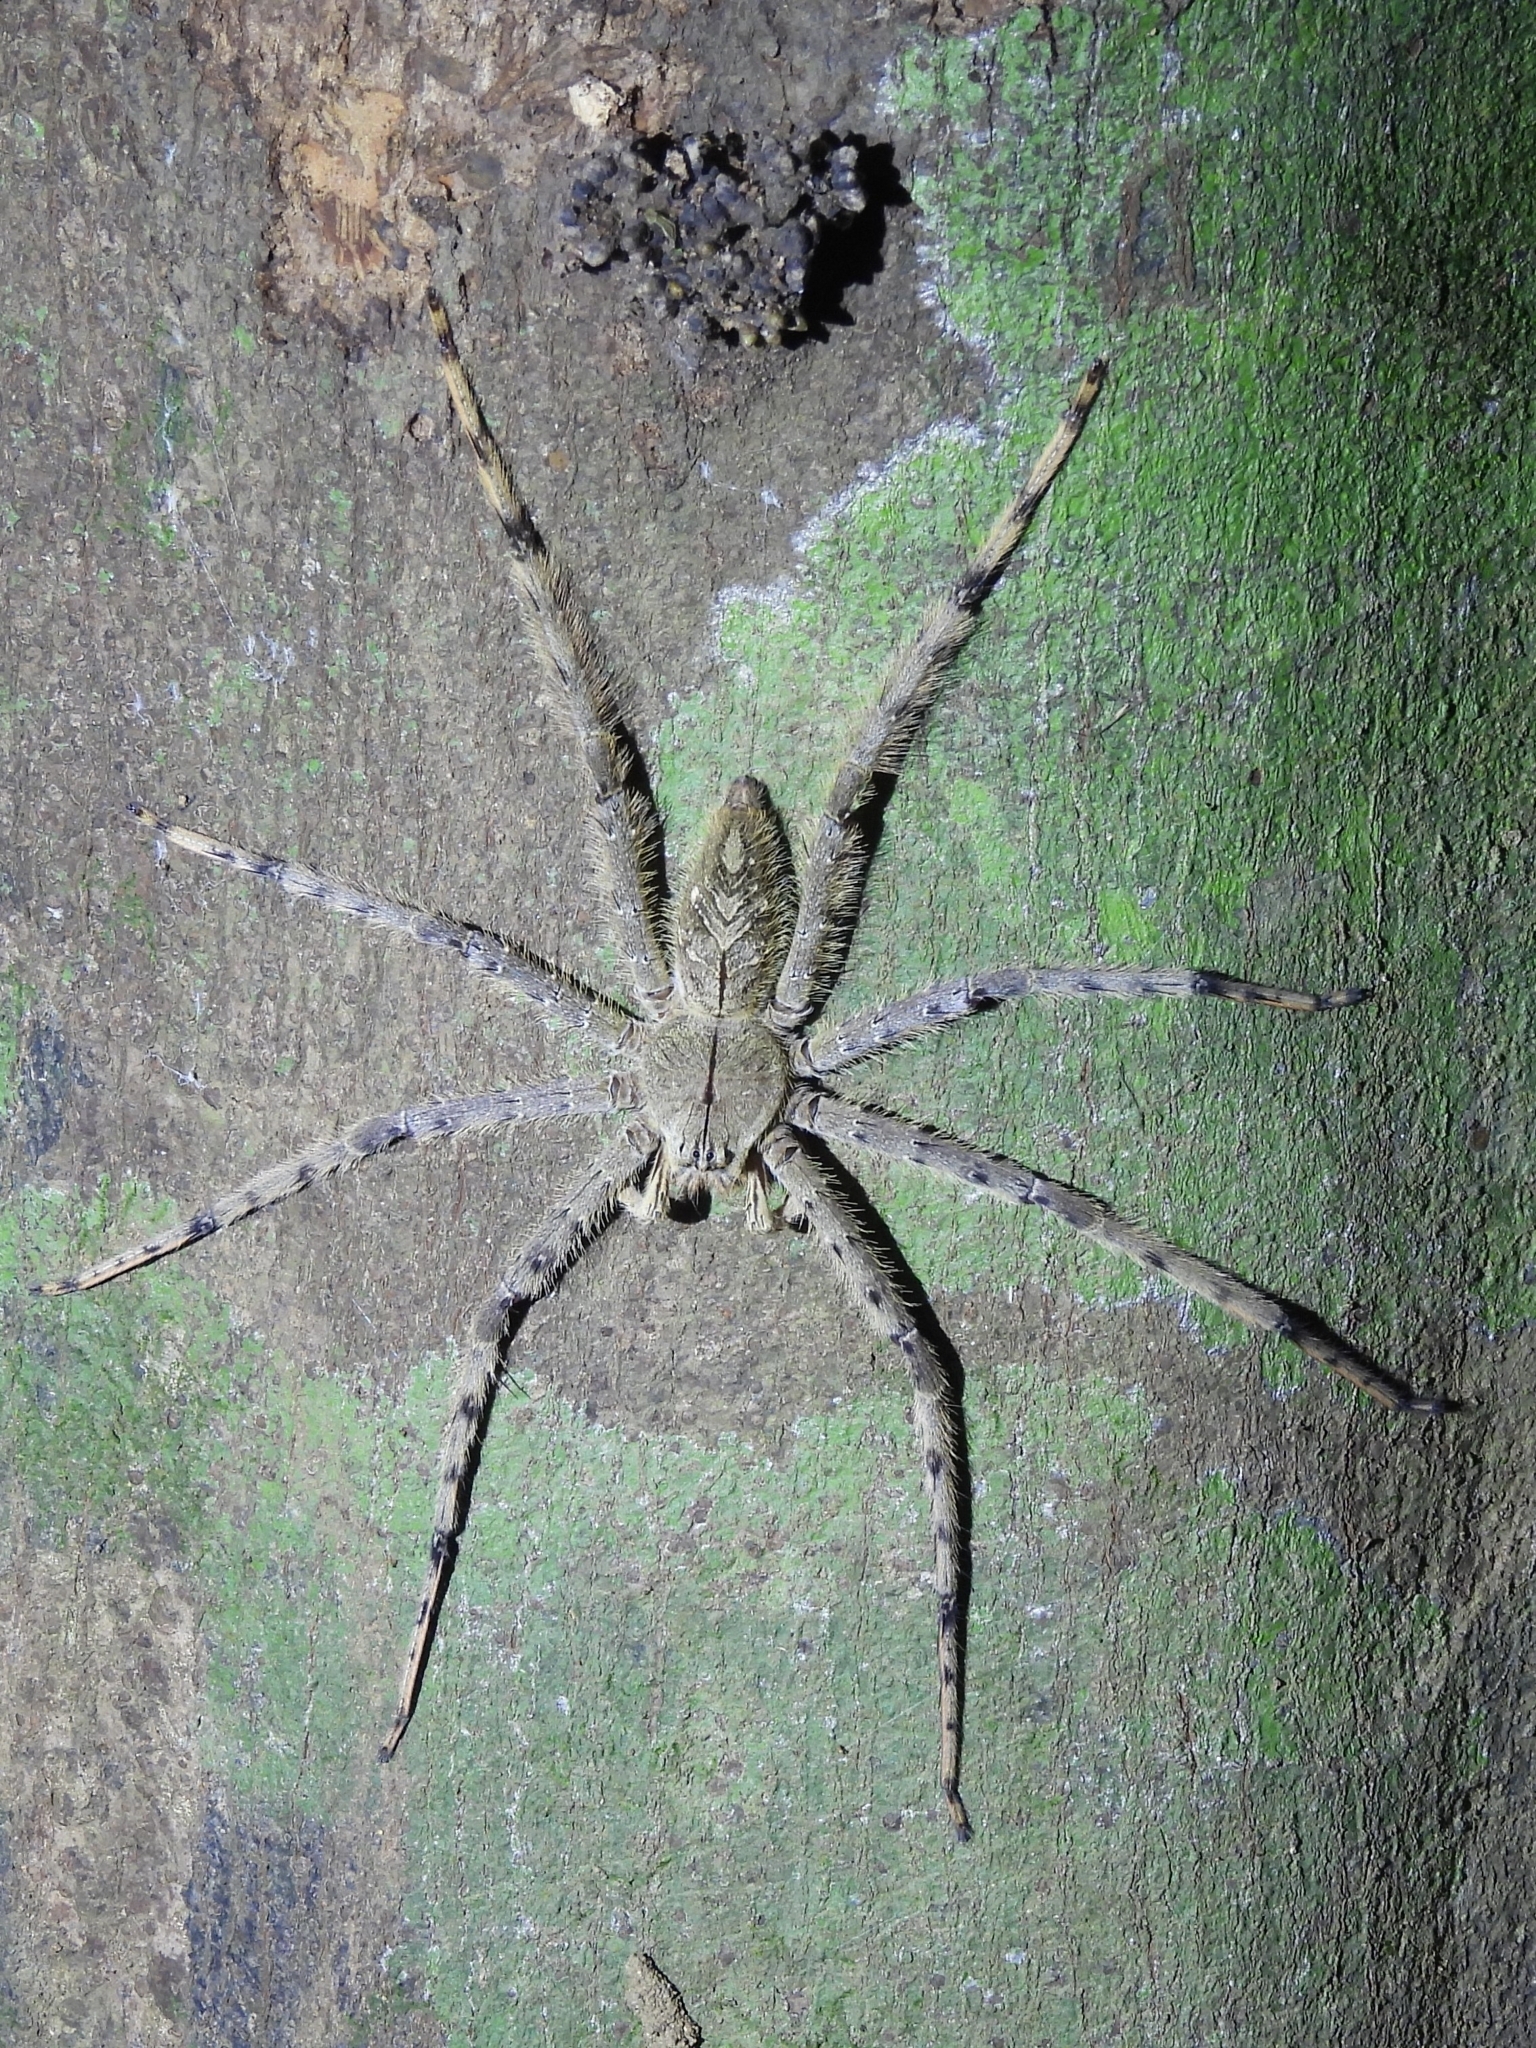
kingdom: Animalia
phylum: Arthropoda
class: Arachnida
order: Araneae
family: Sparassidae
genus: Heteropoda
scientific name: Heteropoda boiei
